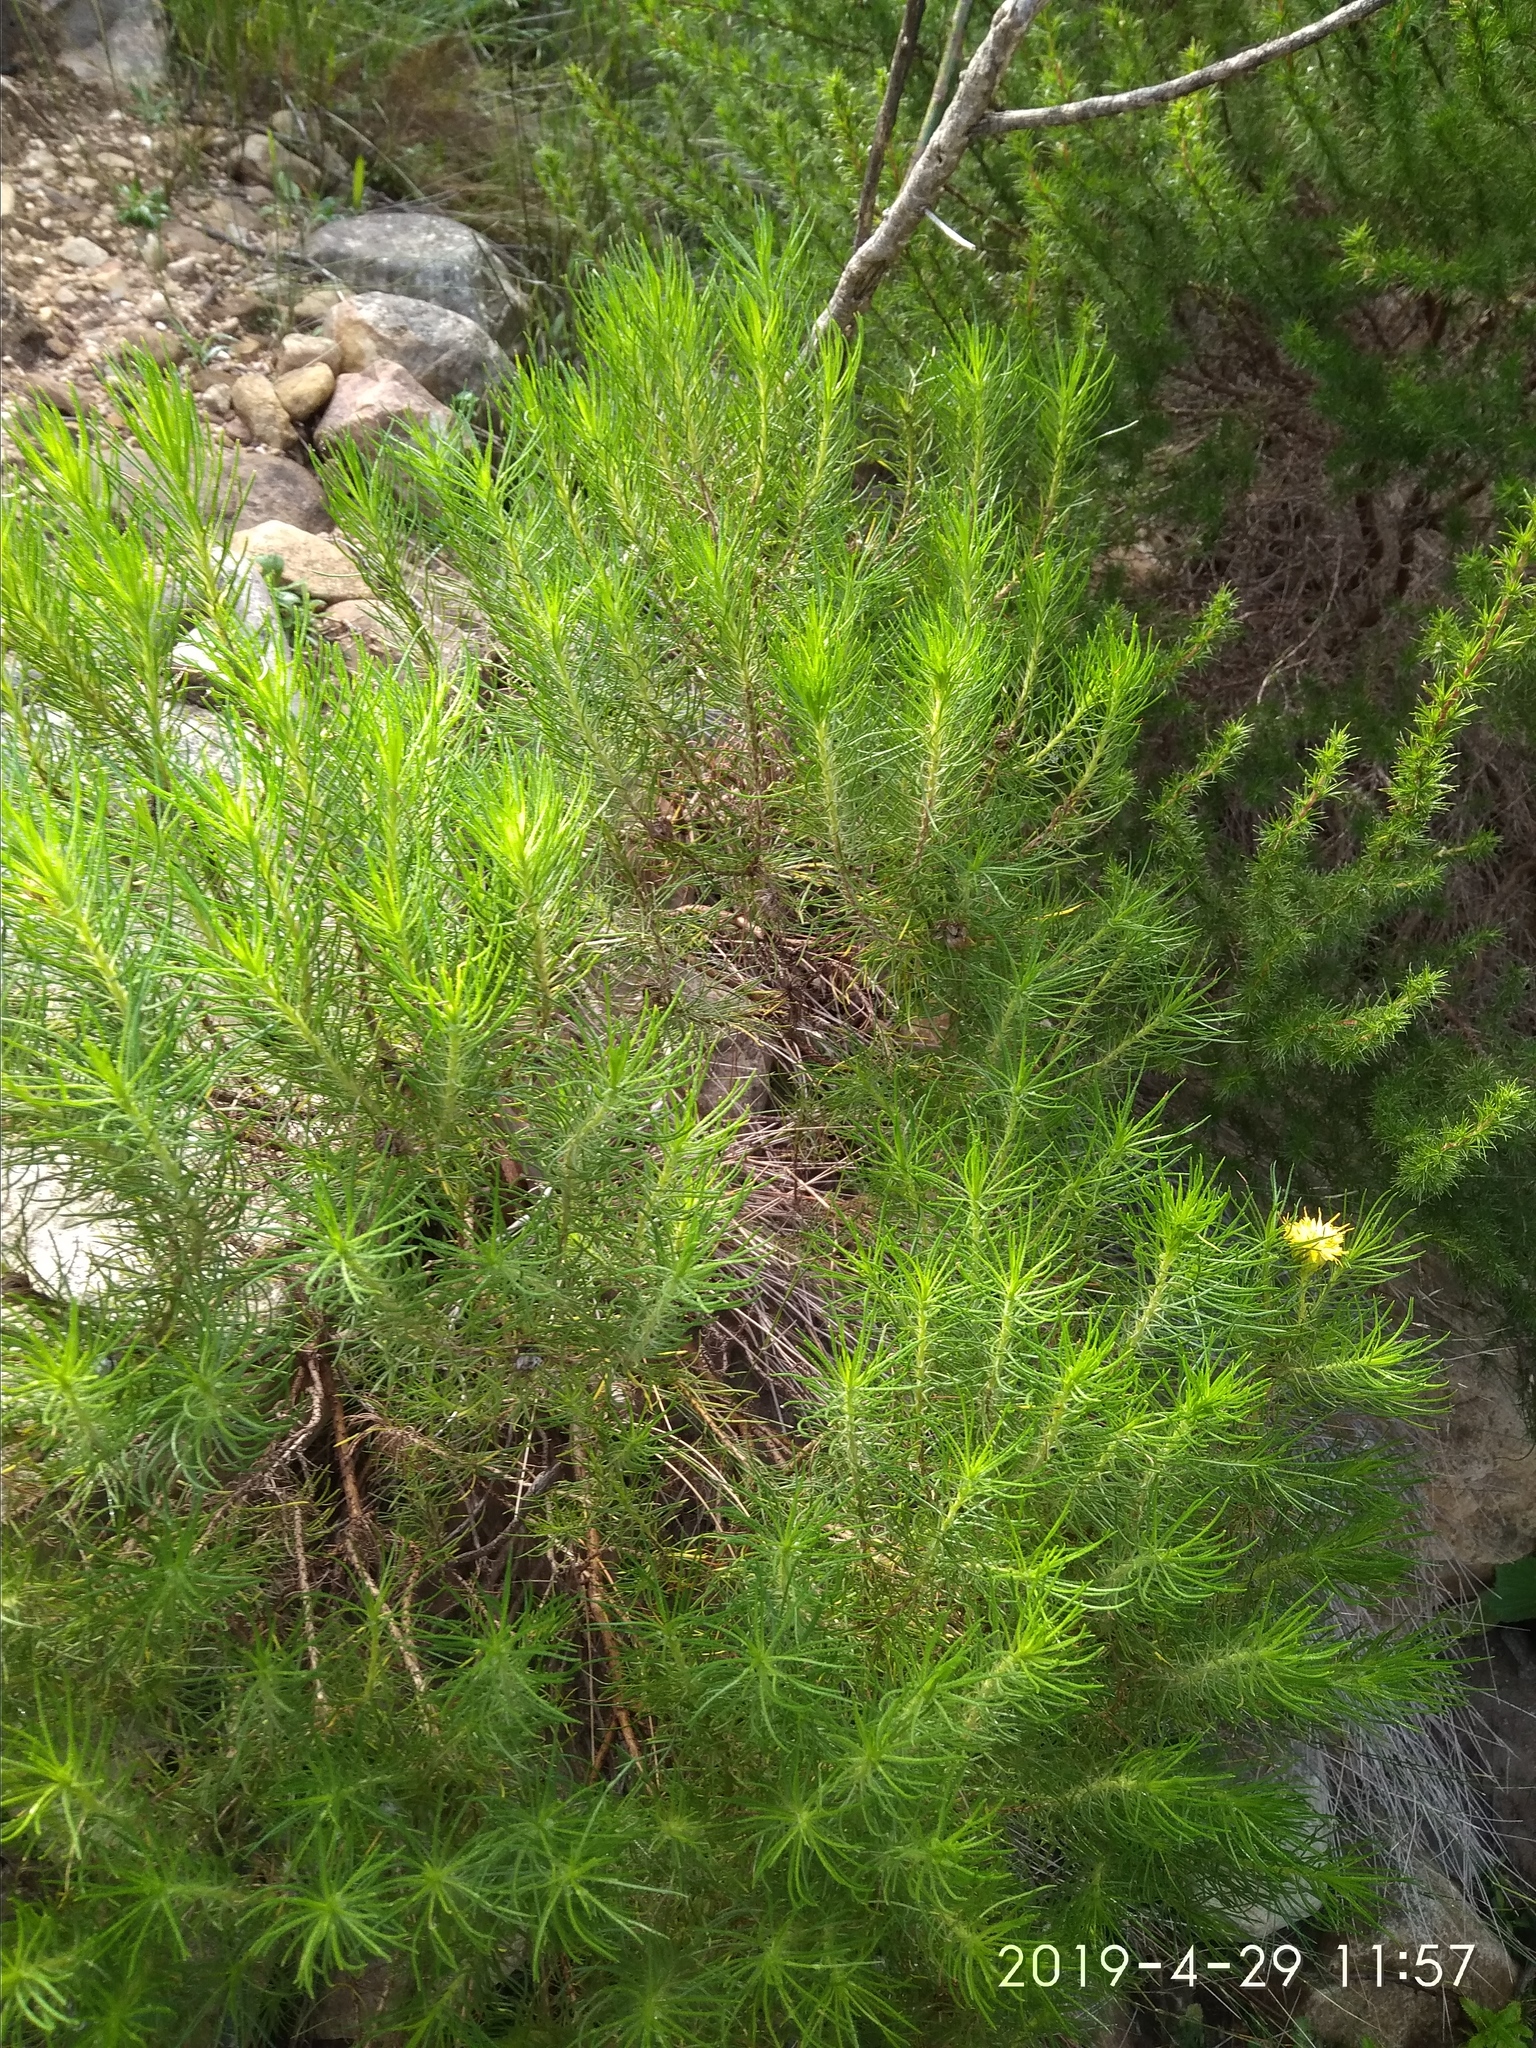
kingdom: Plantae
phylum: Tracheophyta
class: Magnoliopsida
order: Asterales
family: Asteraceae
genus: Pteronia
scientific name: Pteronia camphorata
